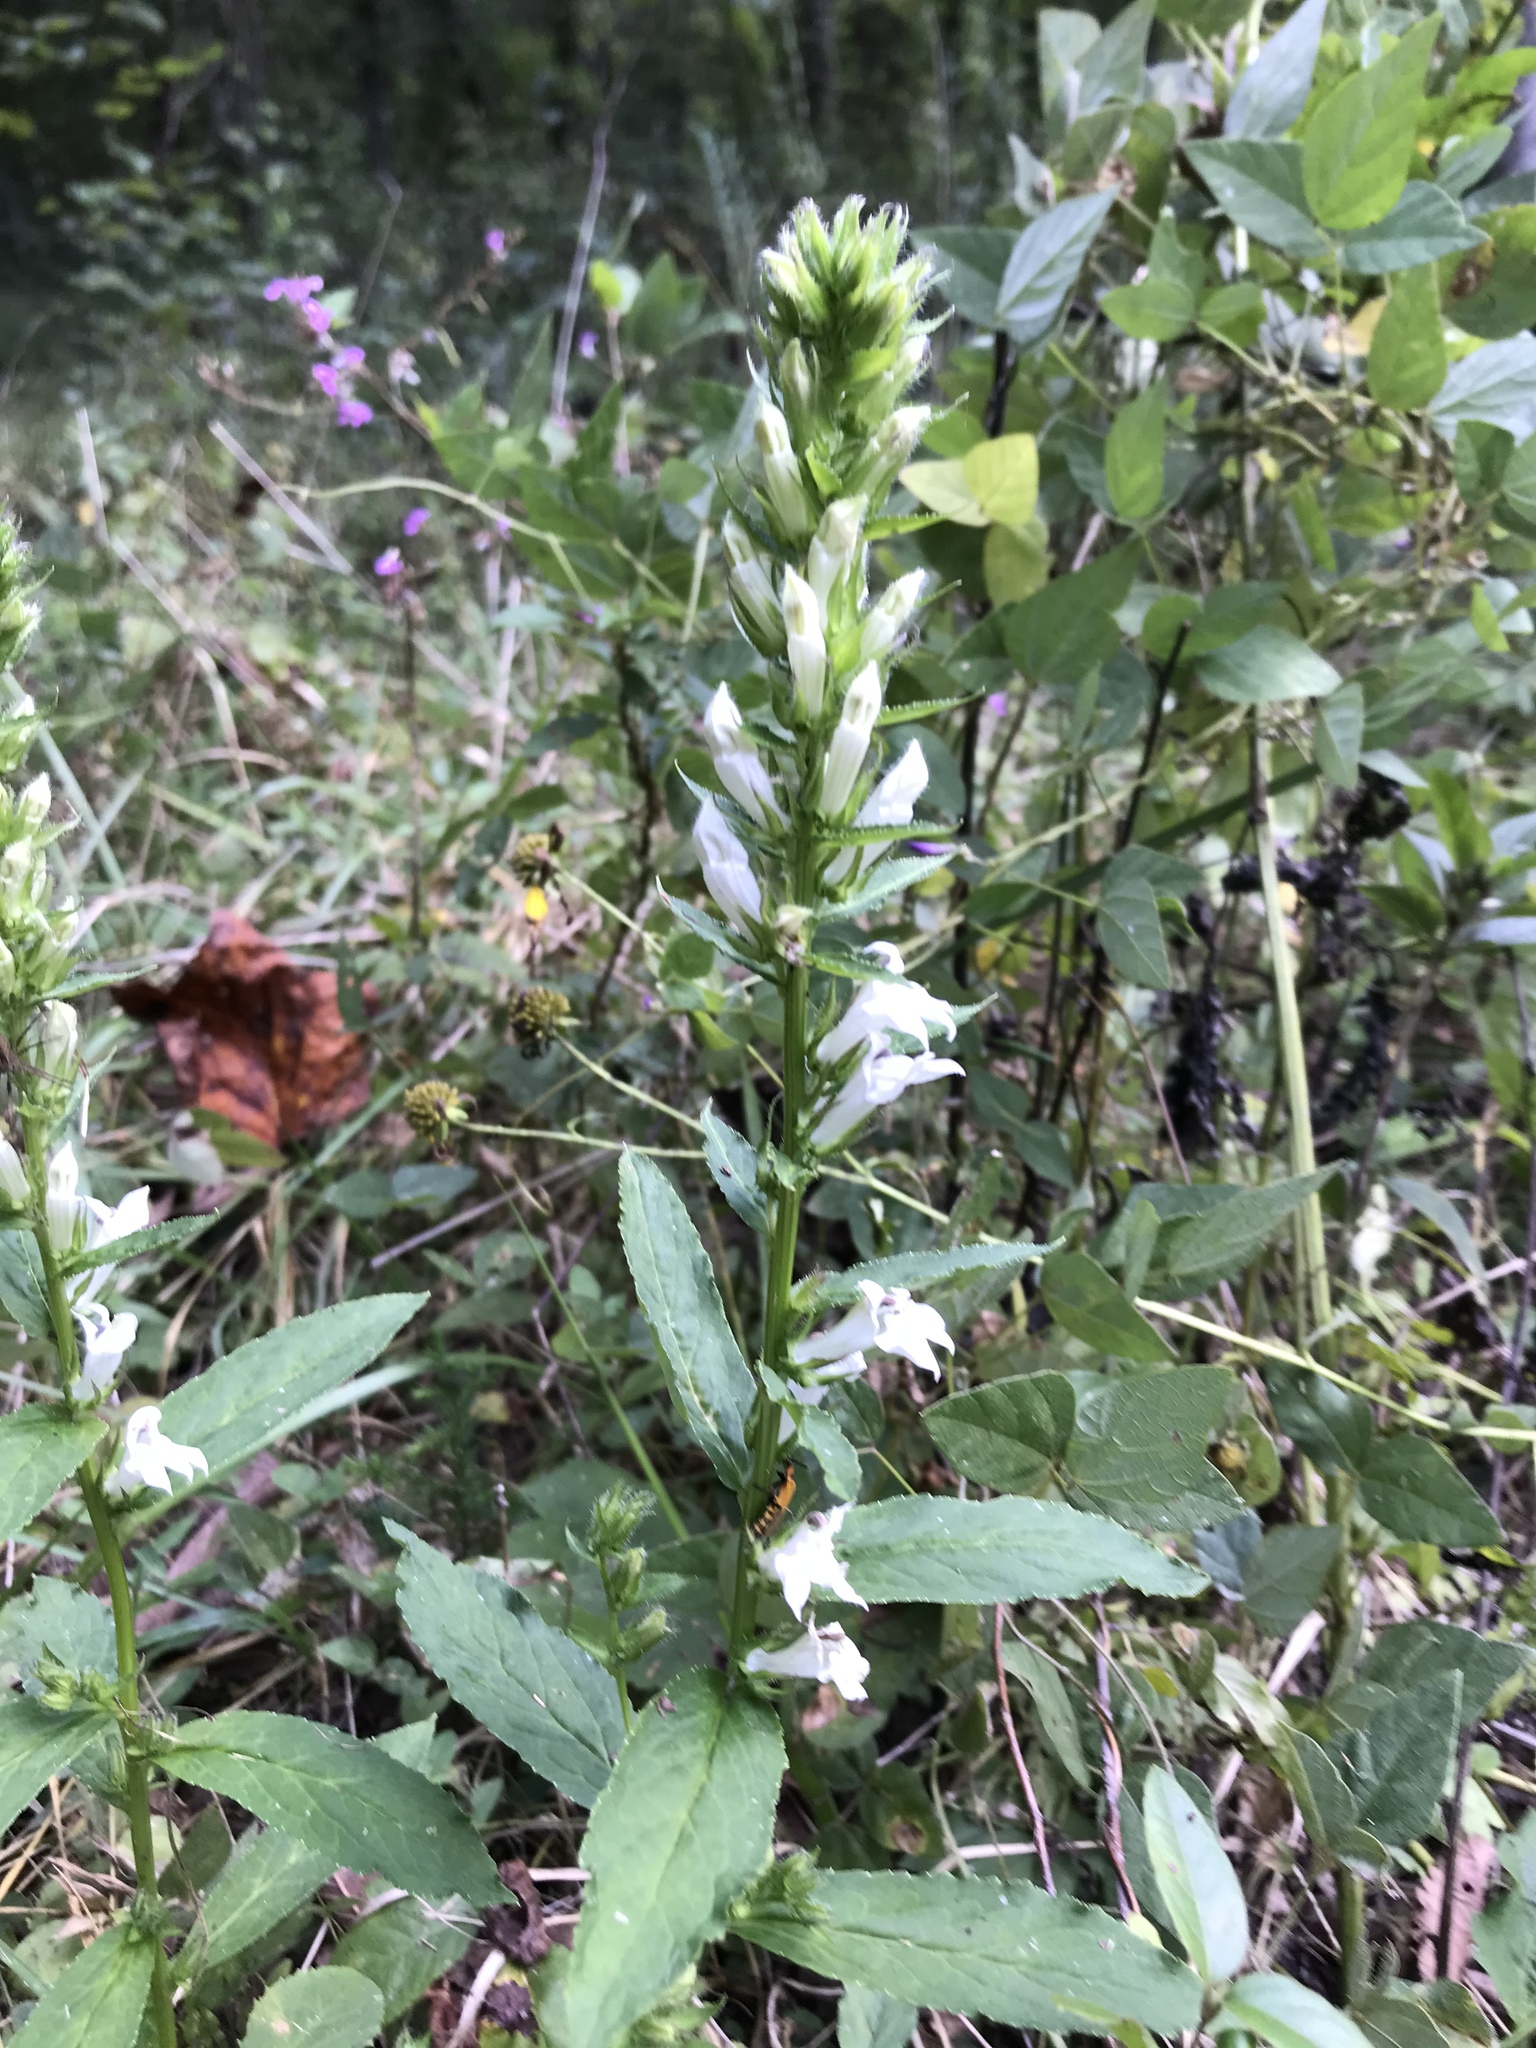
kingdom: Plantae
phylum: Tracheophyta
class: Magnoliopsida
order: Asterales
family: Campanulaceae
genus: Lobelia
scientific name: Lobelia siphilitica
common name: Great lobelia
